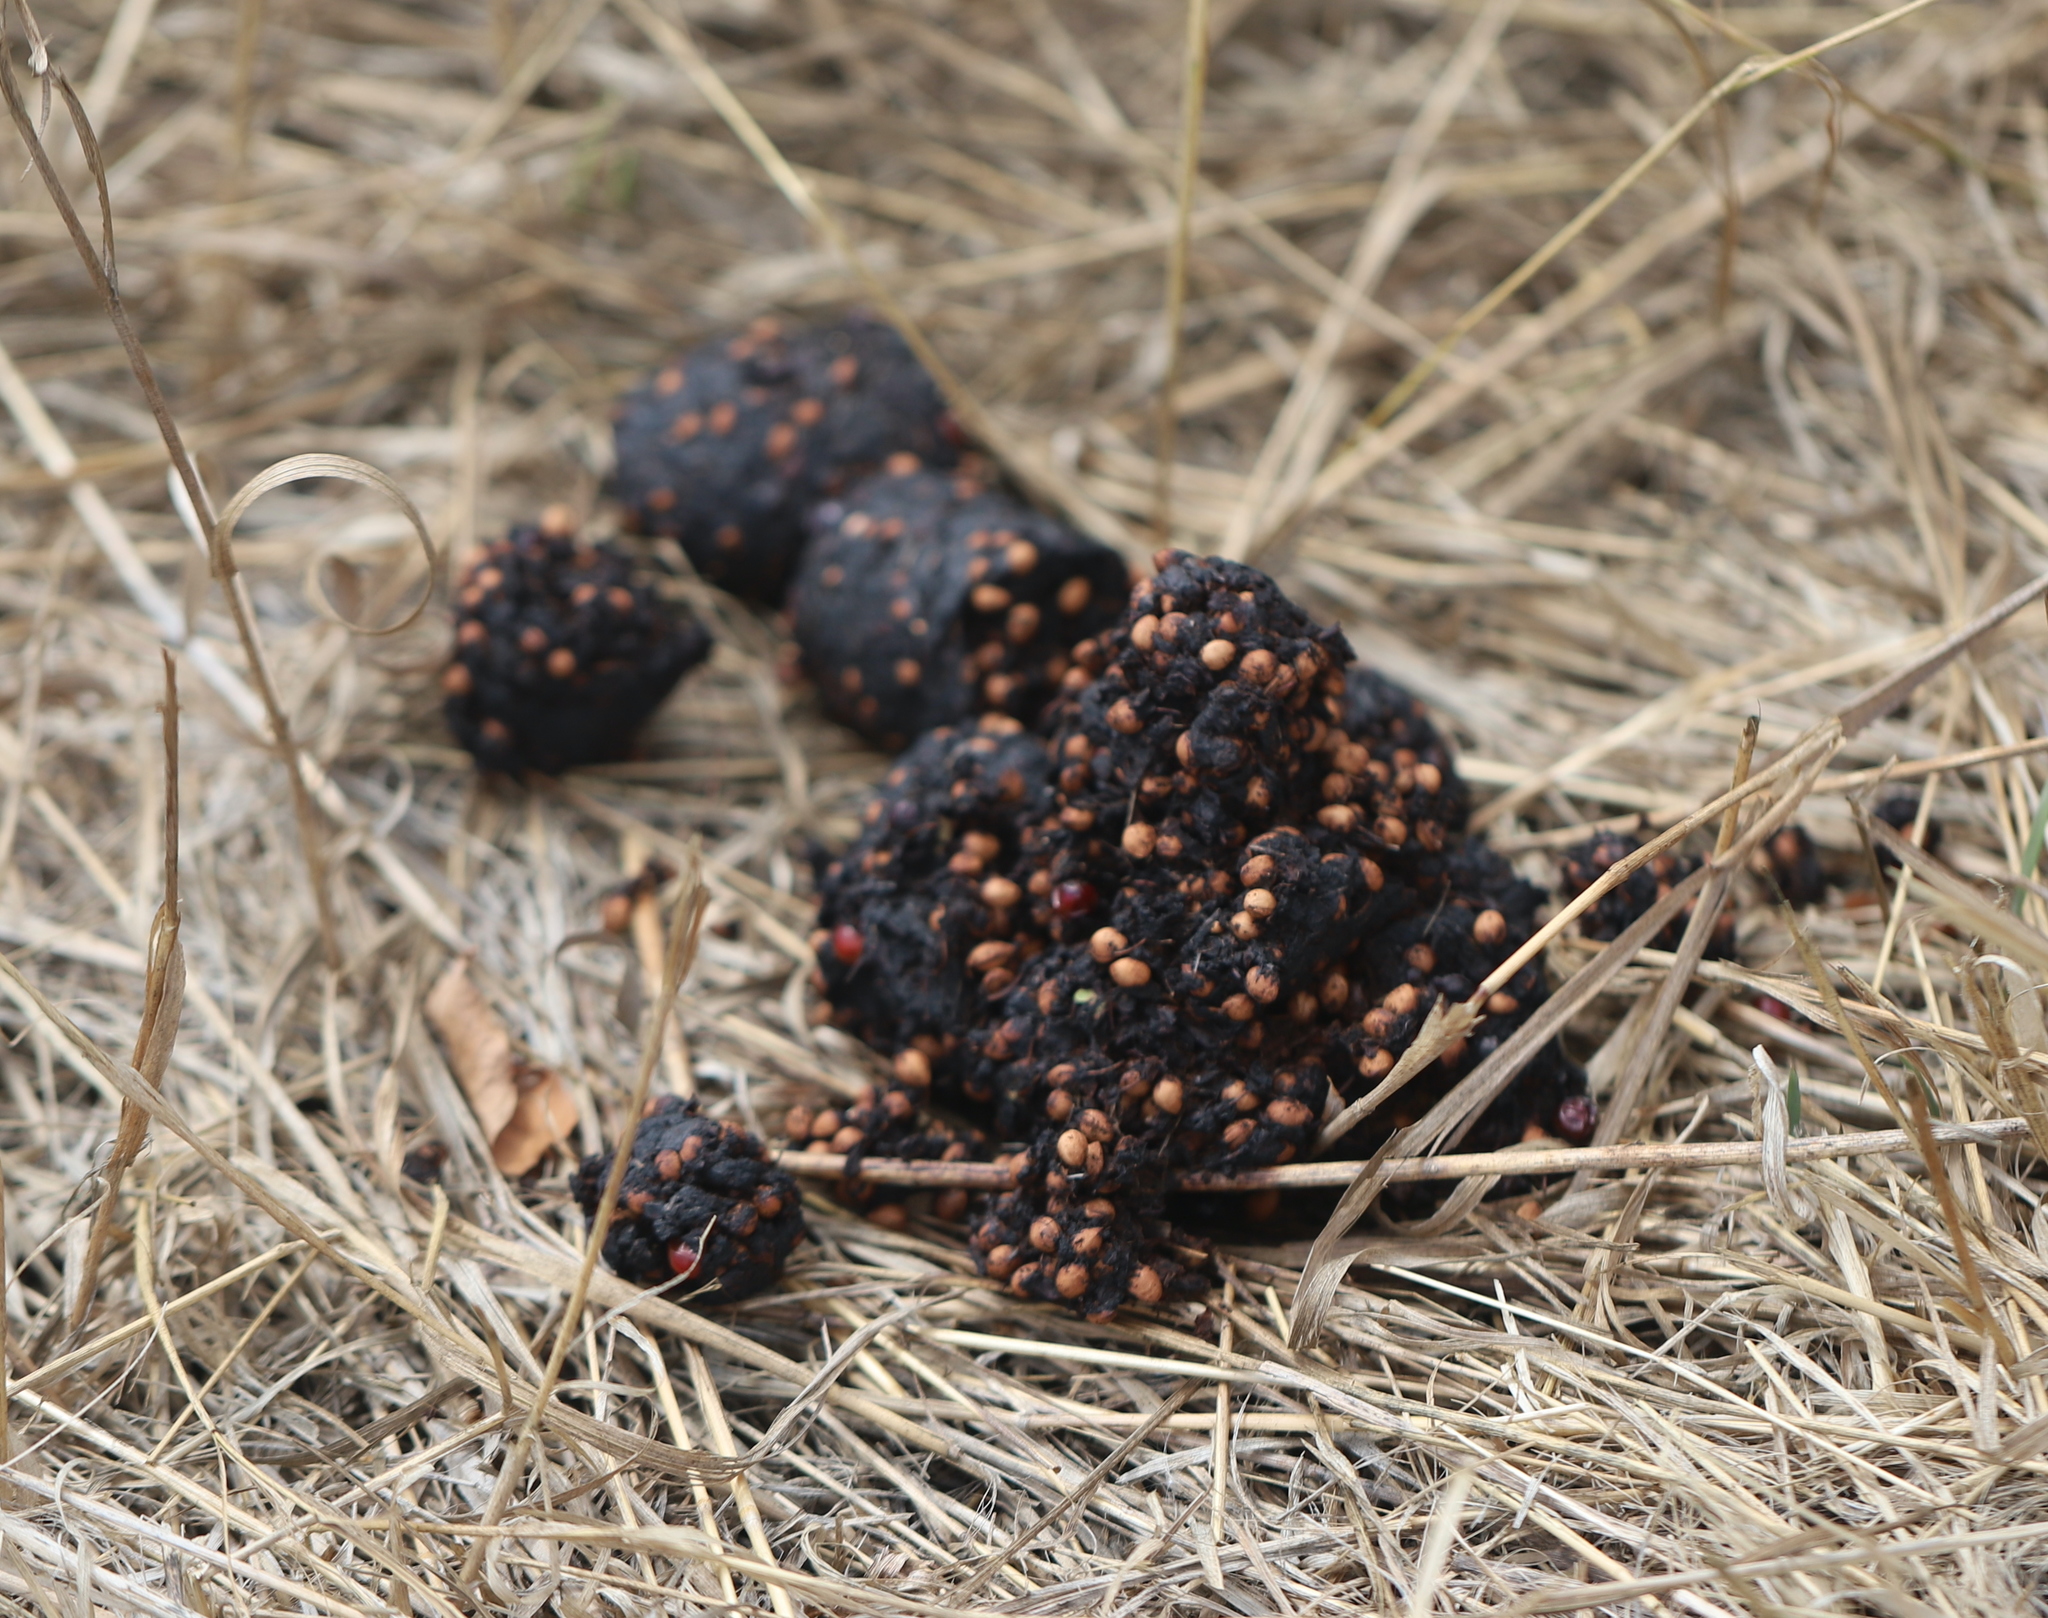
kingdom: Animalia
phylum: Chordata
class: Mammalia
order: Carnivora
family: Ursidae
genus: Ursus
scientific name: Ursus americanus
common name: American black bear
